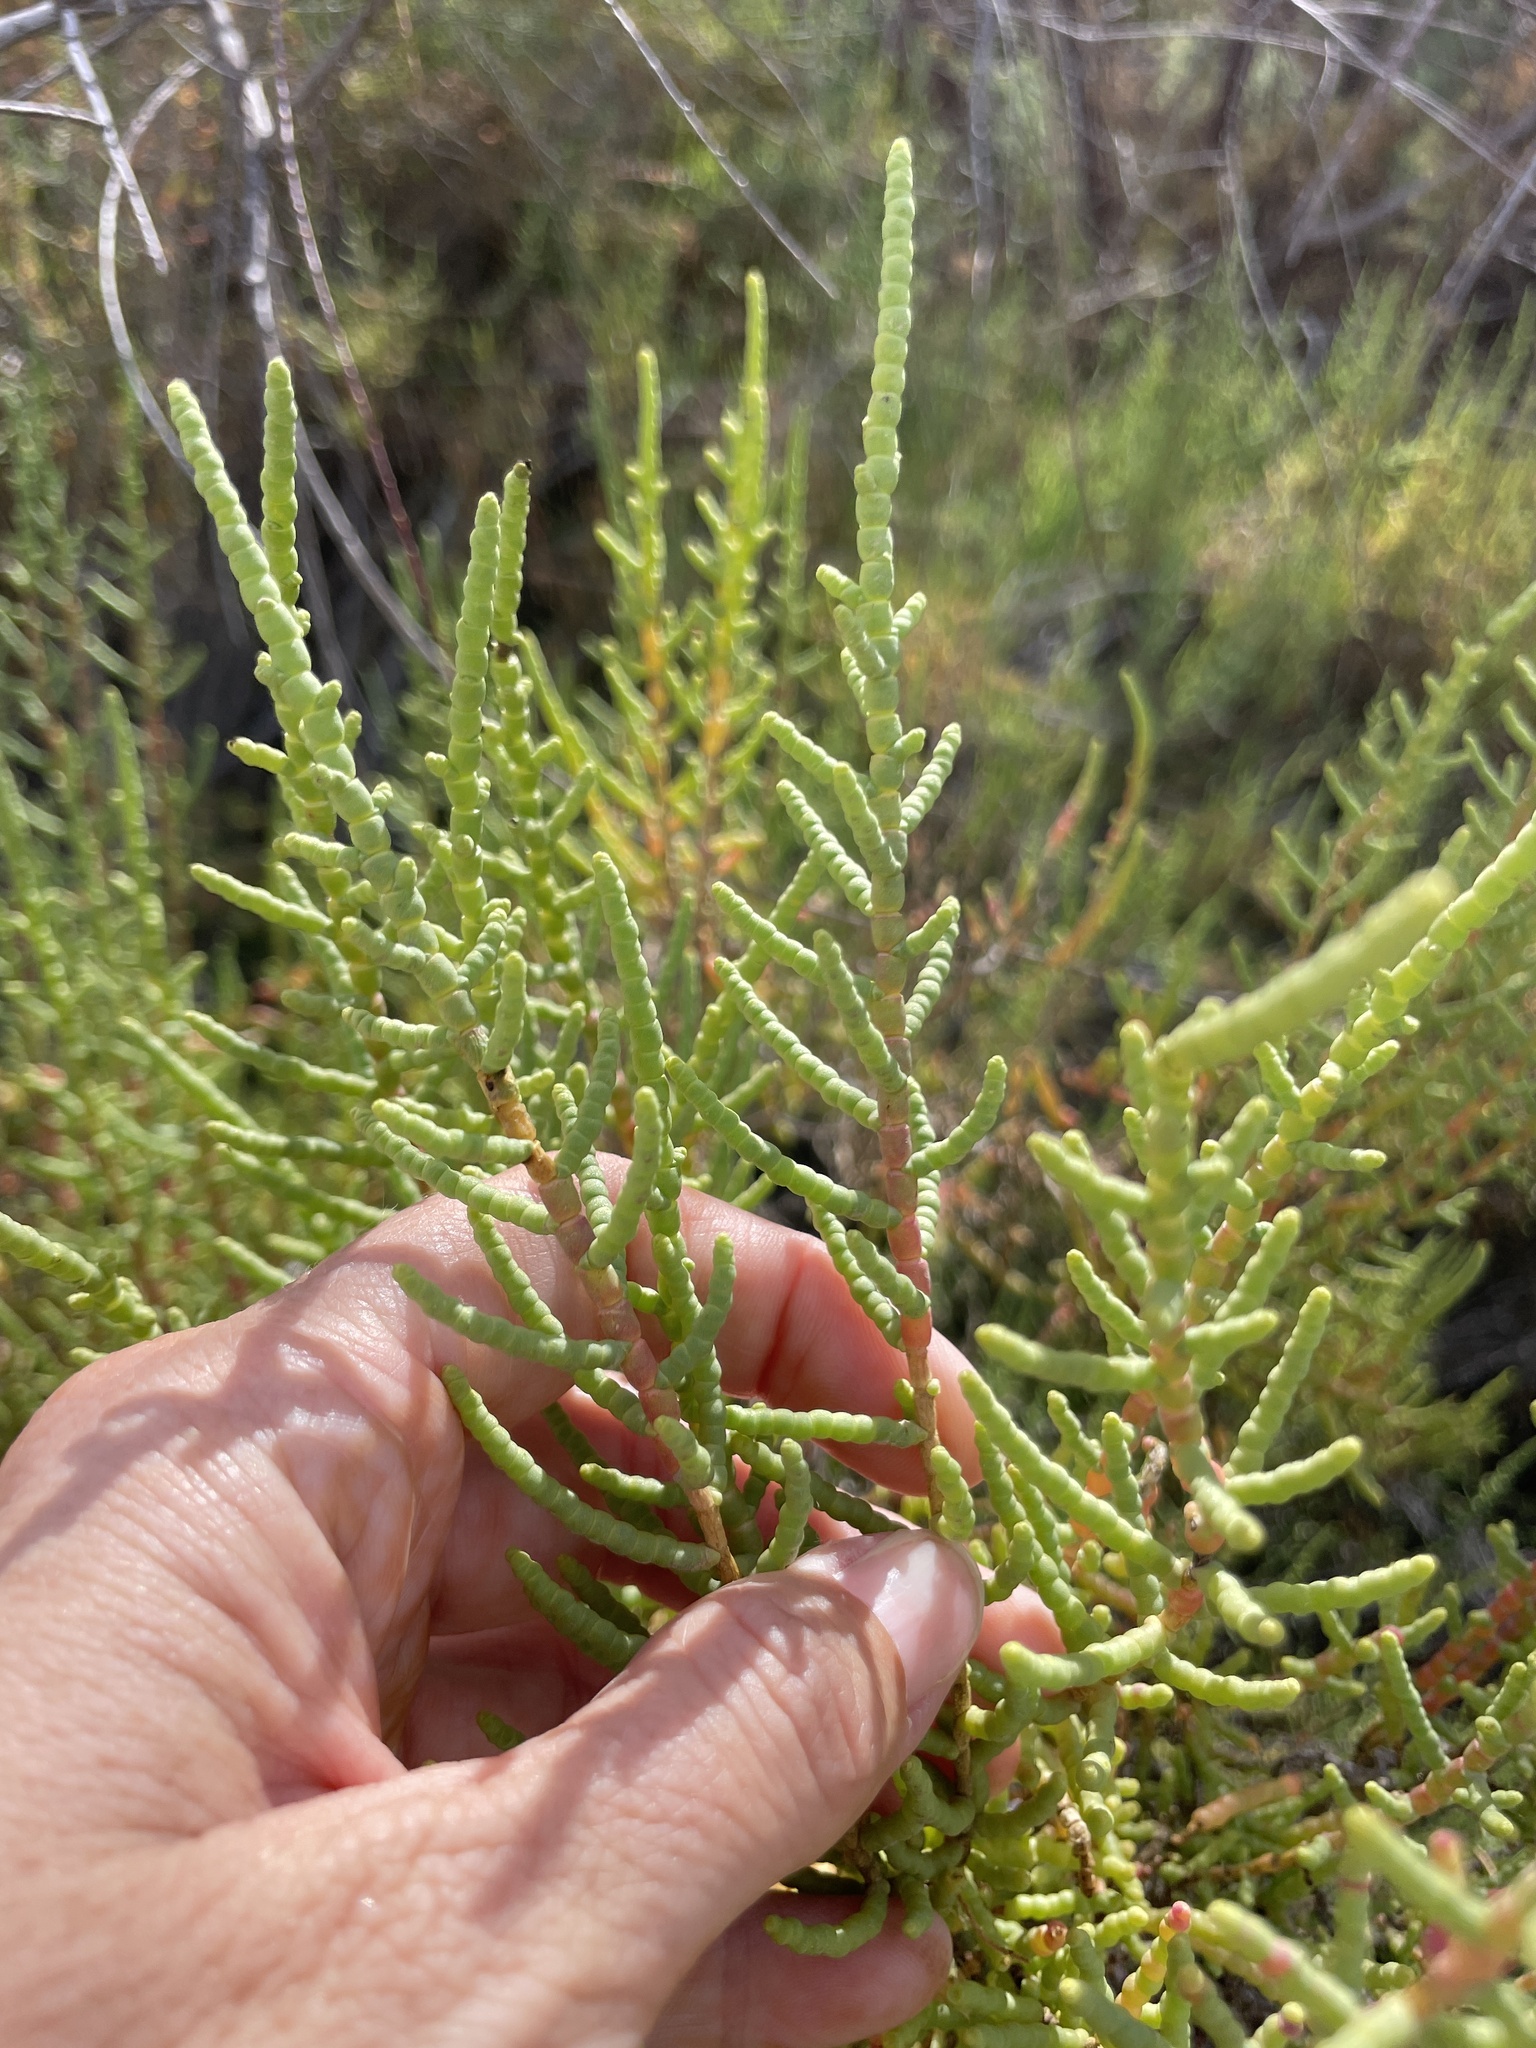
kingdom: Plantae
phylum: Tracheophyta
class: Magnoliopsida
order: Caryophyllales
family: Amaranthaceae
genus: Allenrolfea
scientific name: Allenrolfea occidentalis
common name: Iodine-bush
